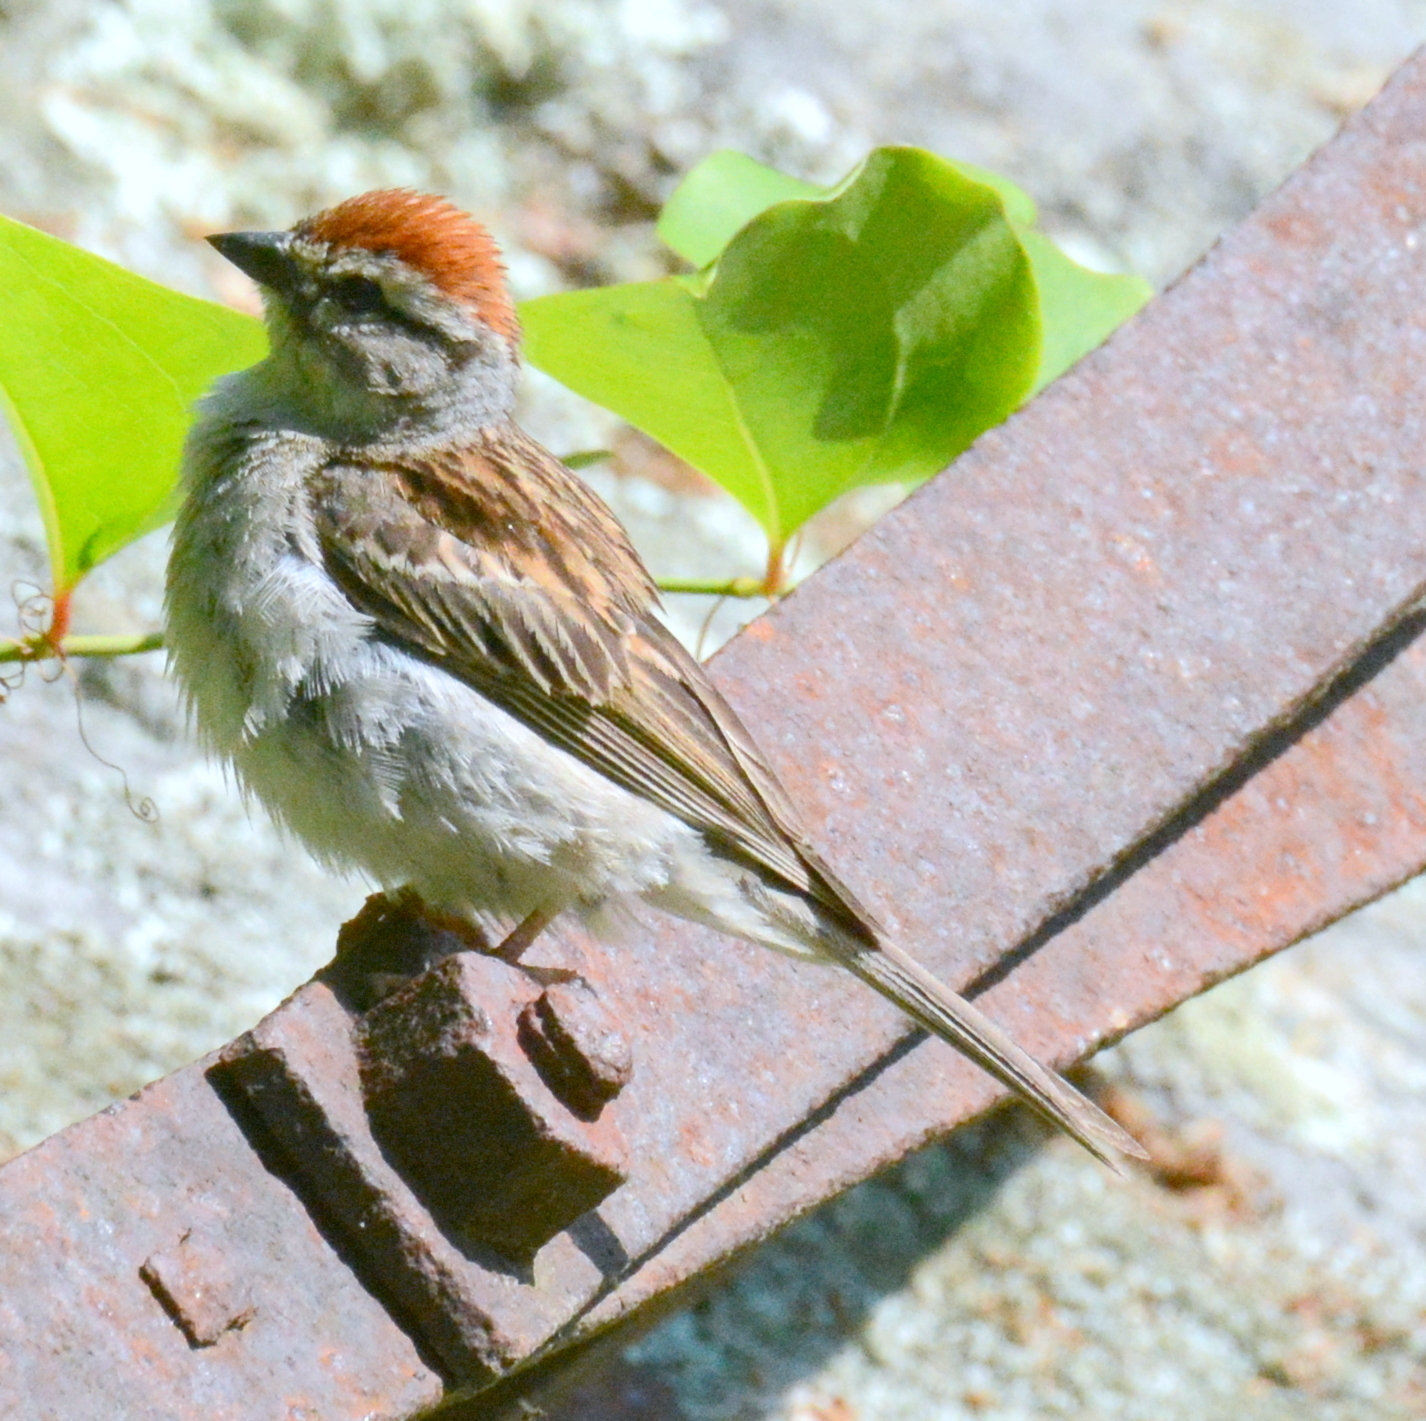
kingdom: Animalia
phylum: Chordata
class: Aves
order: Passeriformes
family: Passerellidae
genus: Spizella
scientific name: Spizella passerina
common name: Chipping sparrow
